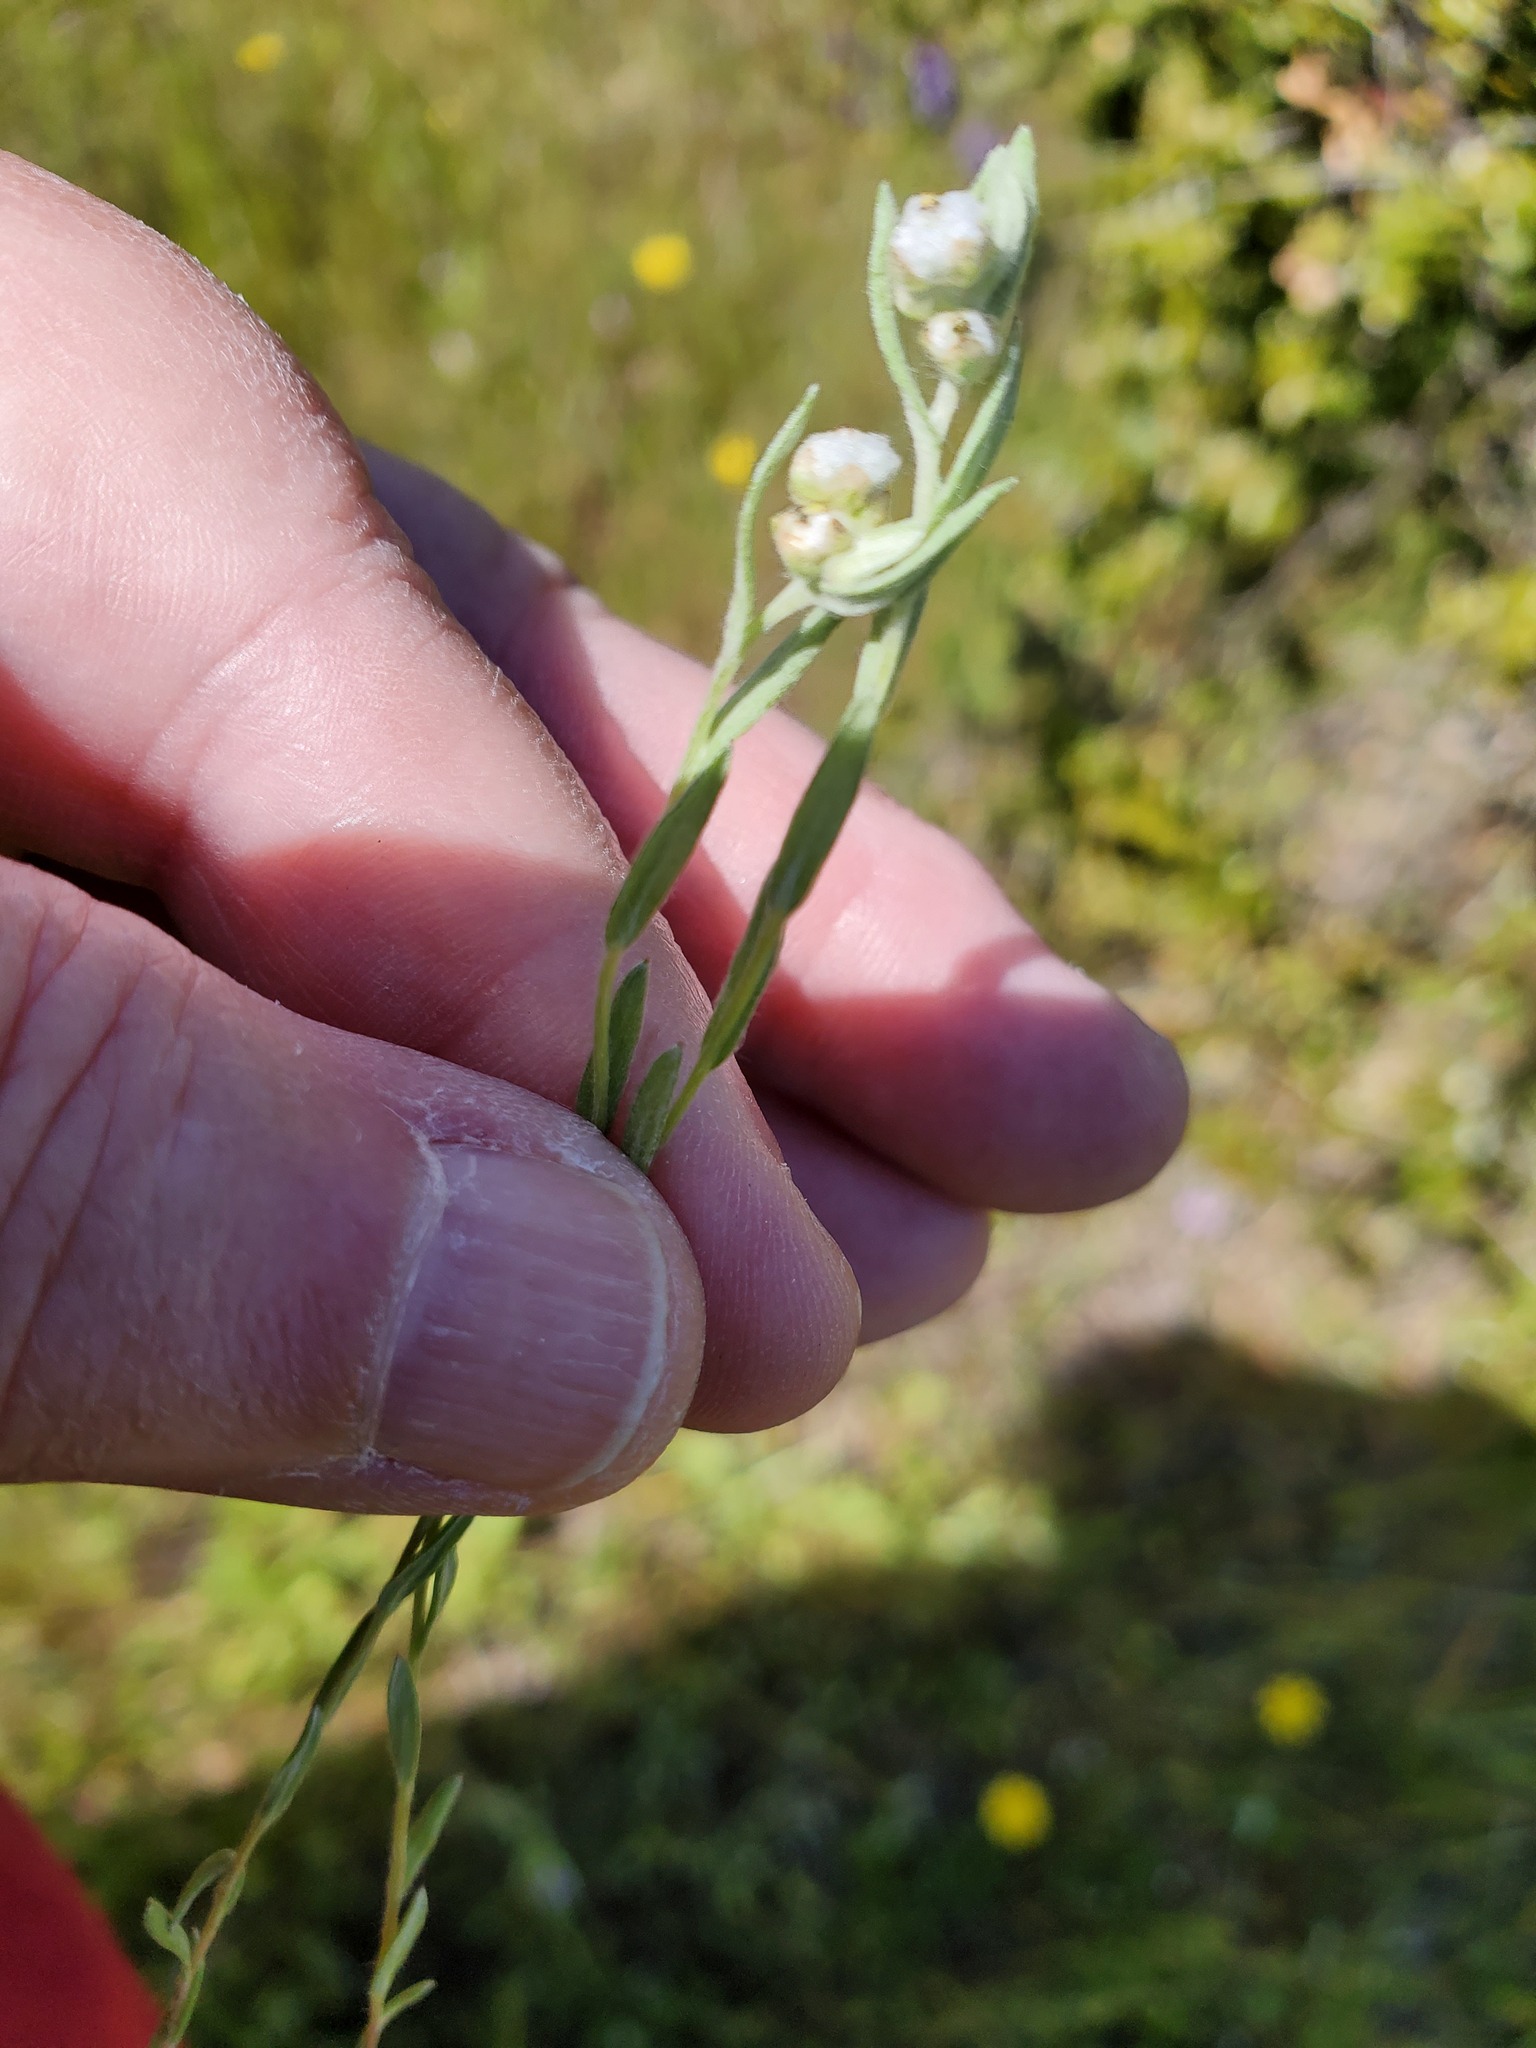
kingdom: Plantae
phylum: Tracheophyta
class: Magnoliopsida
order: Asterales
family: Asteraceae
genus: Bombycilaena
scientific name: Bombycilaena californica
